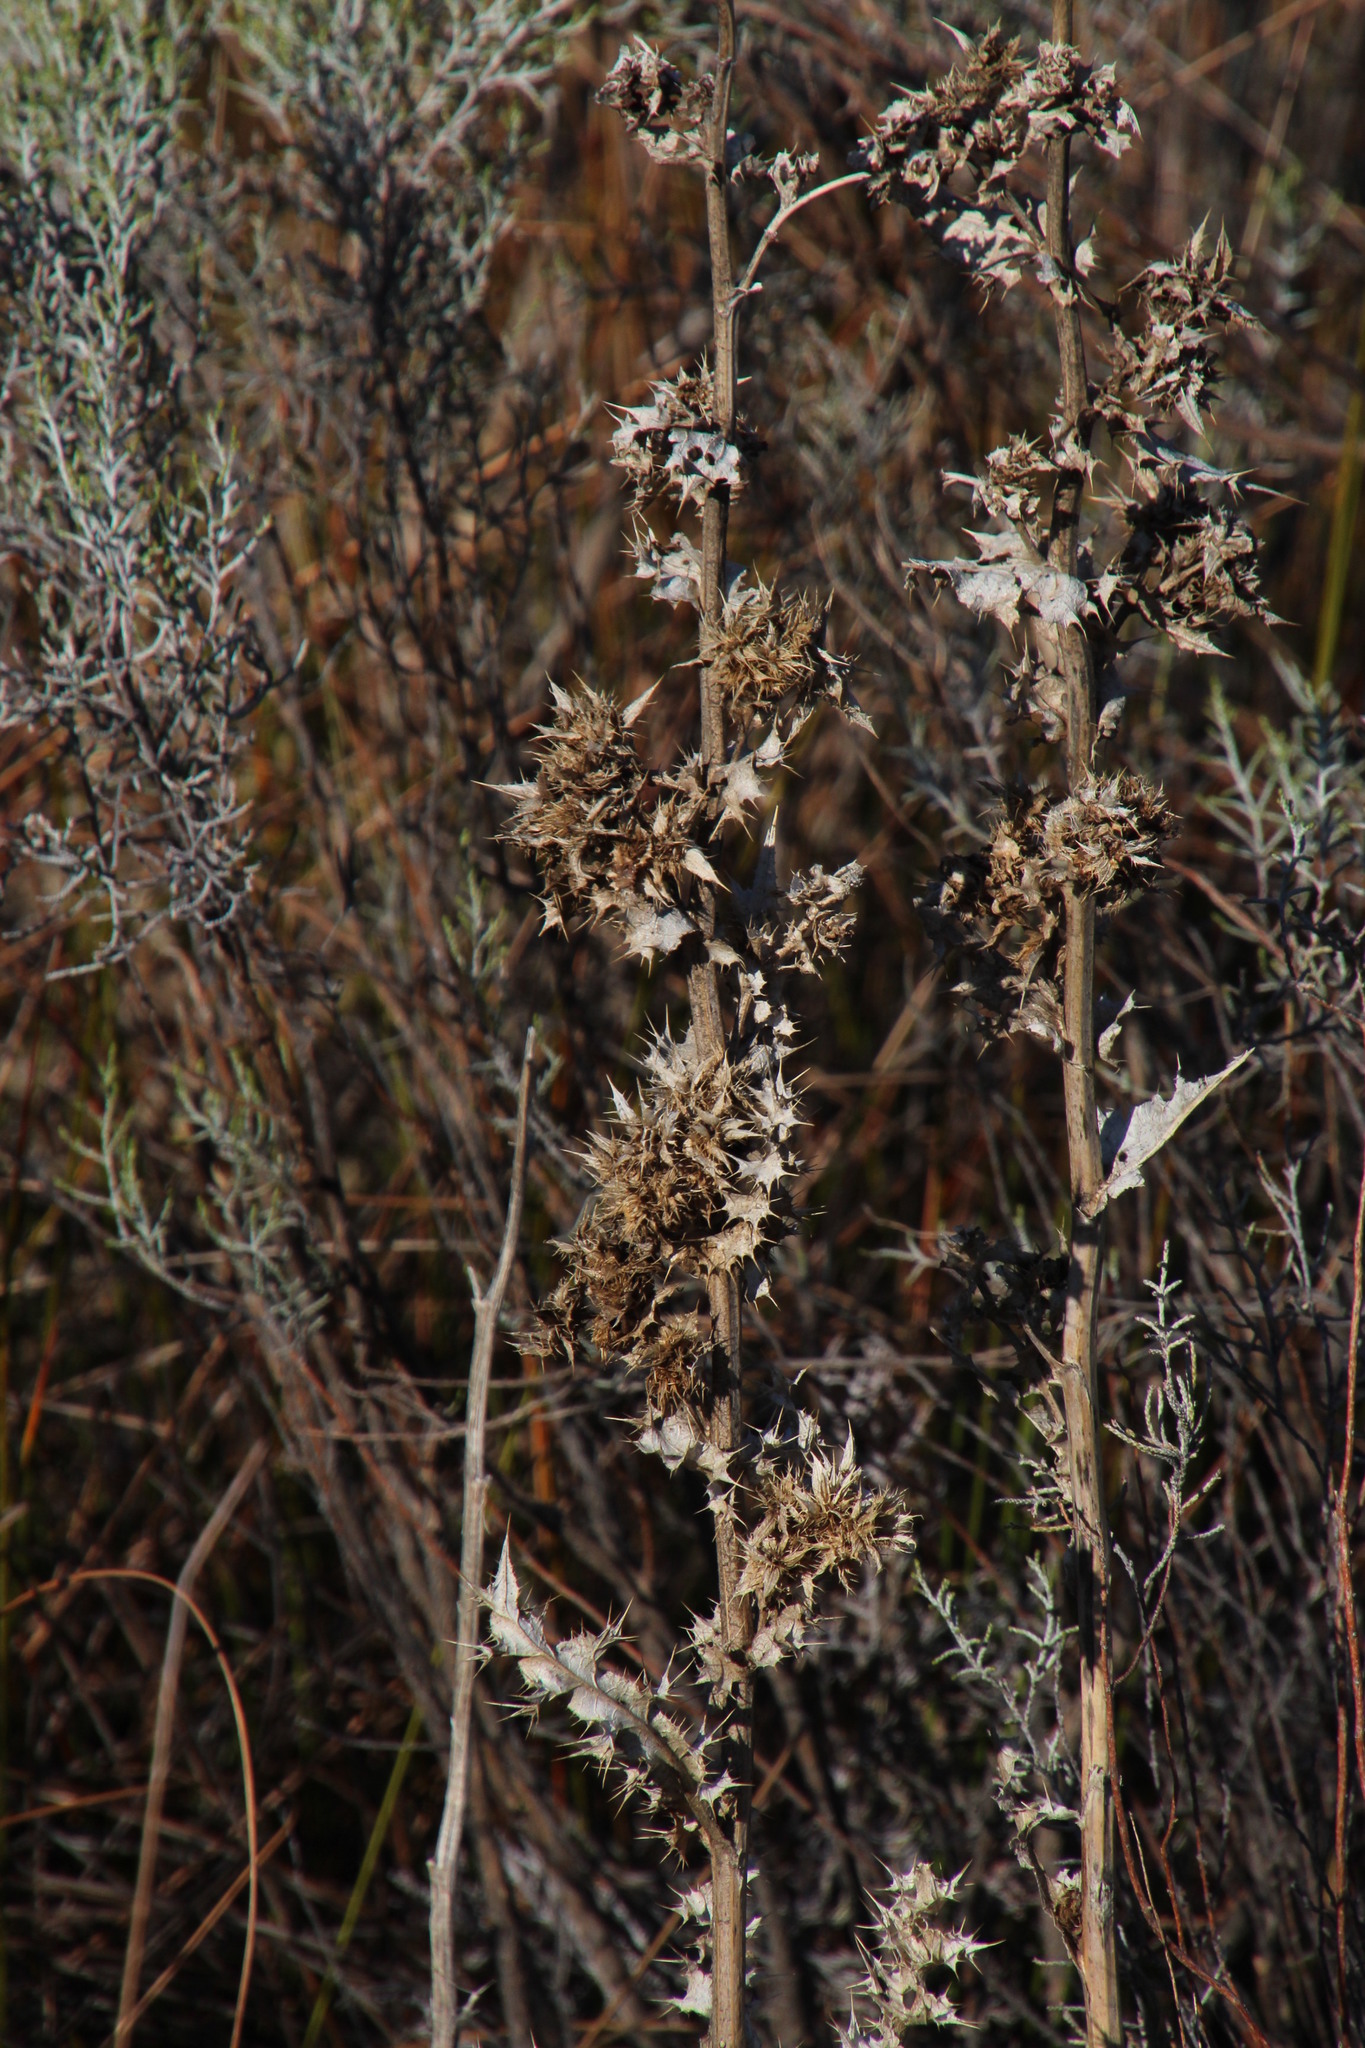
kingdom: Plantae
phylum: Tracheophyta
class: Magnoliopsida
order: Asterales
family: Asteraceae
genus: Berkheya
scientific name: Berkheya onobromoides
